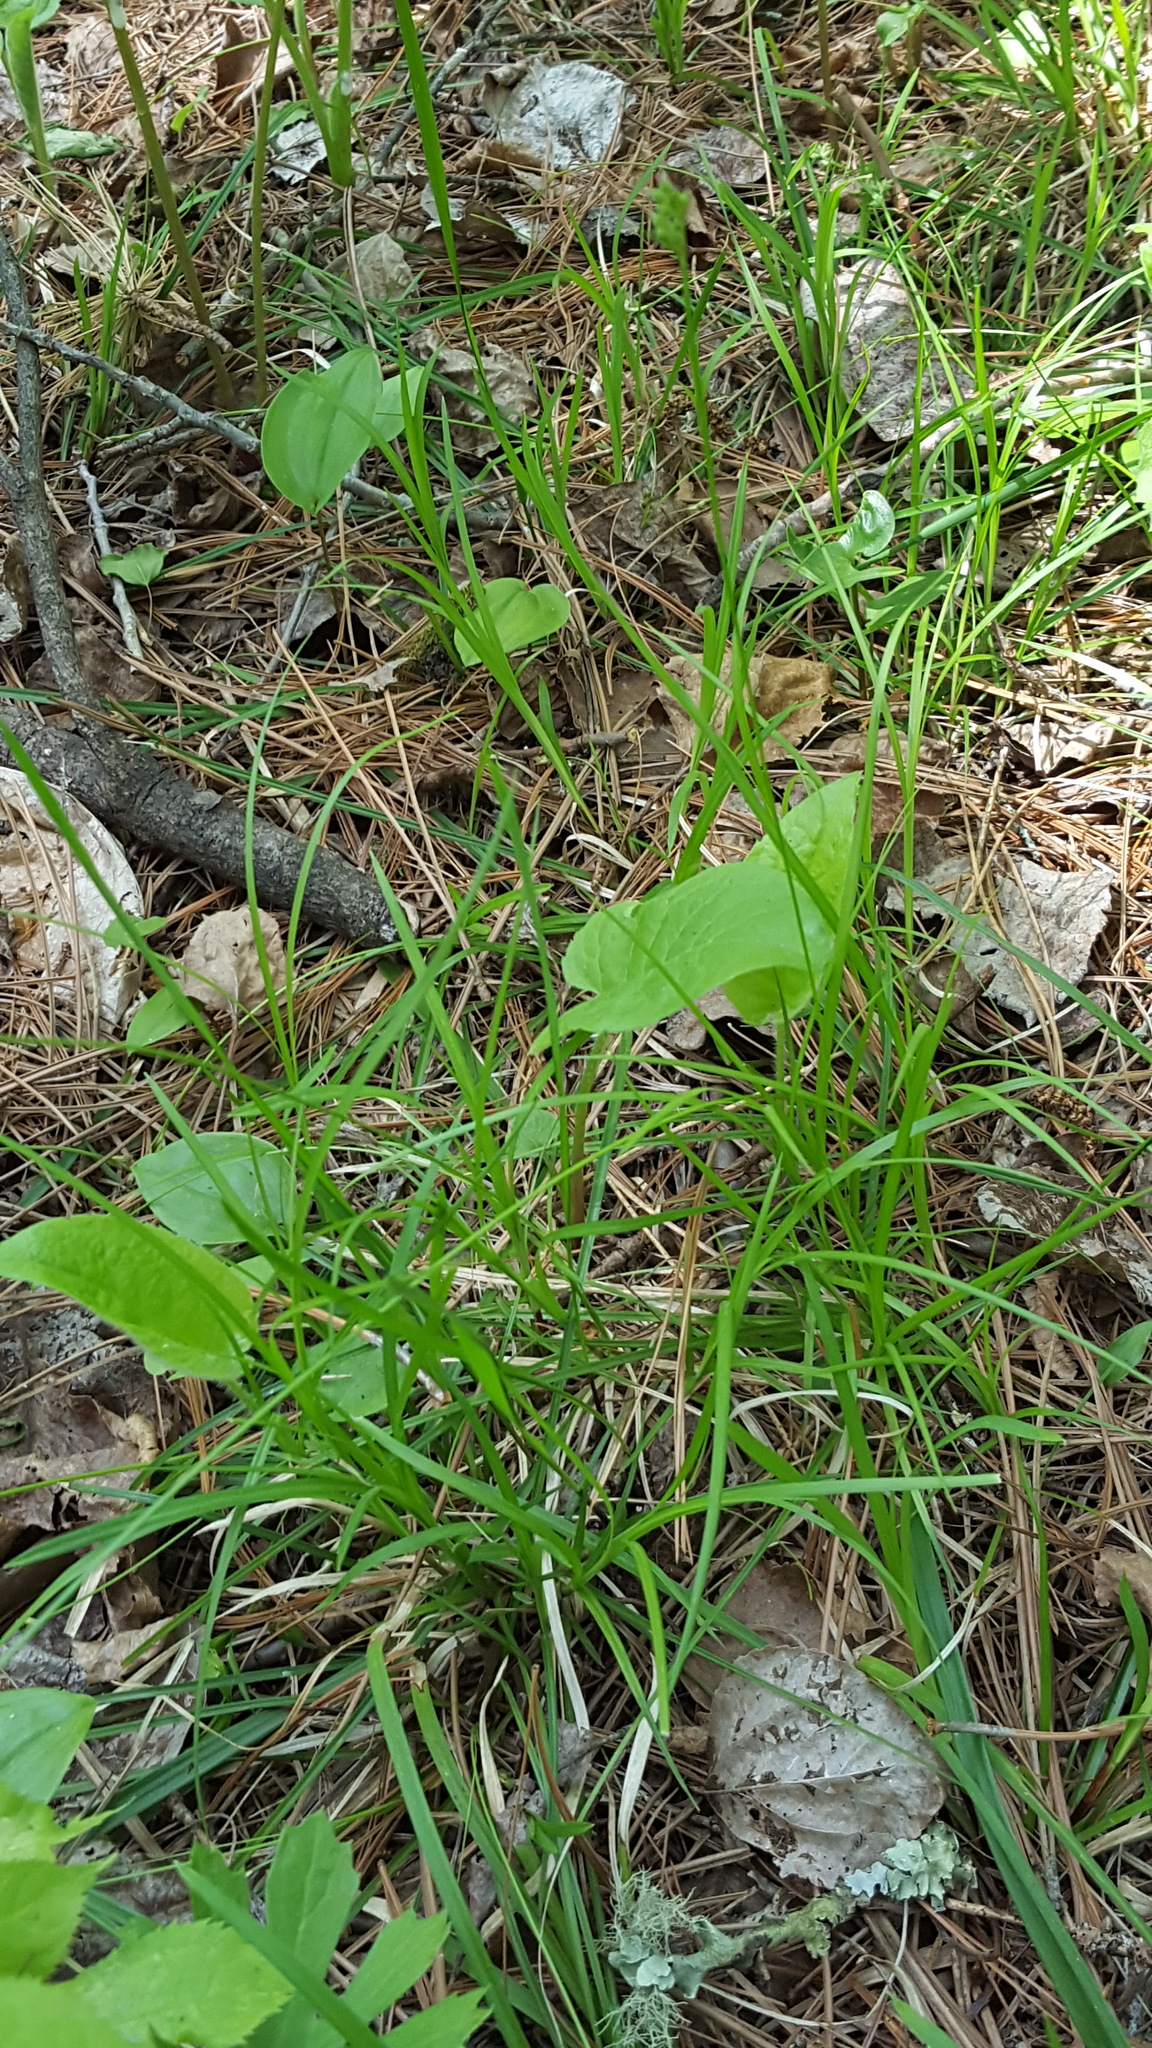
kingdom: Plantae
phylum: Tracheophyta
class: Liliopsida
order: Poales
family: Cyperaceae
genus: Carex
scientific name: Carex peckii
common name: Peck's oak sedge
